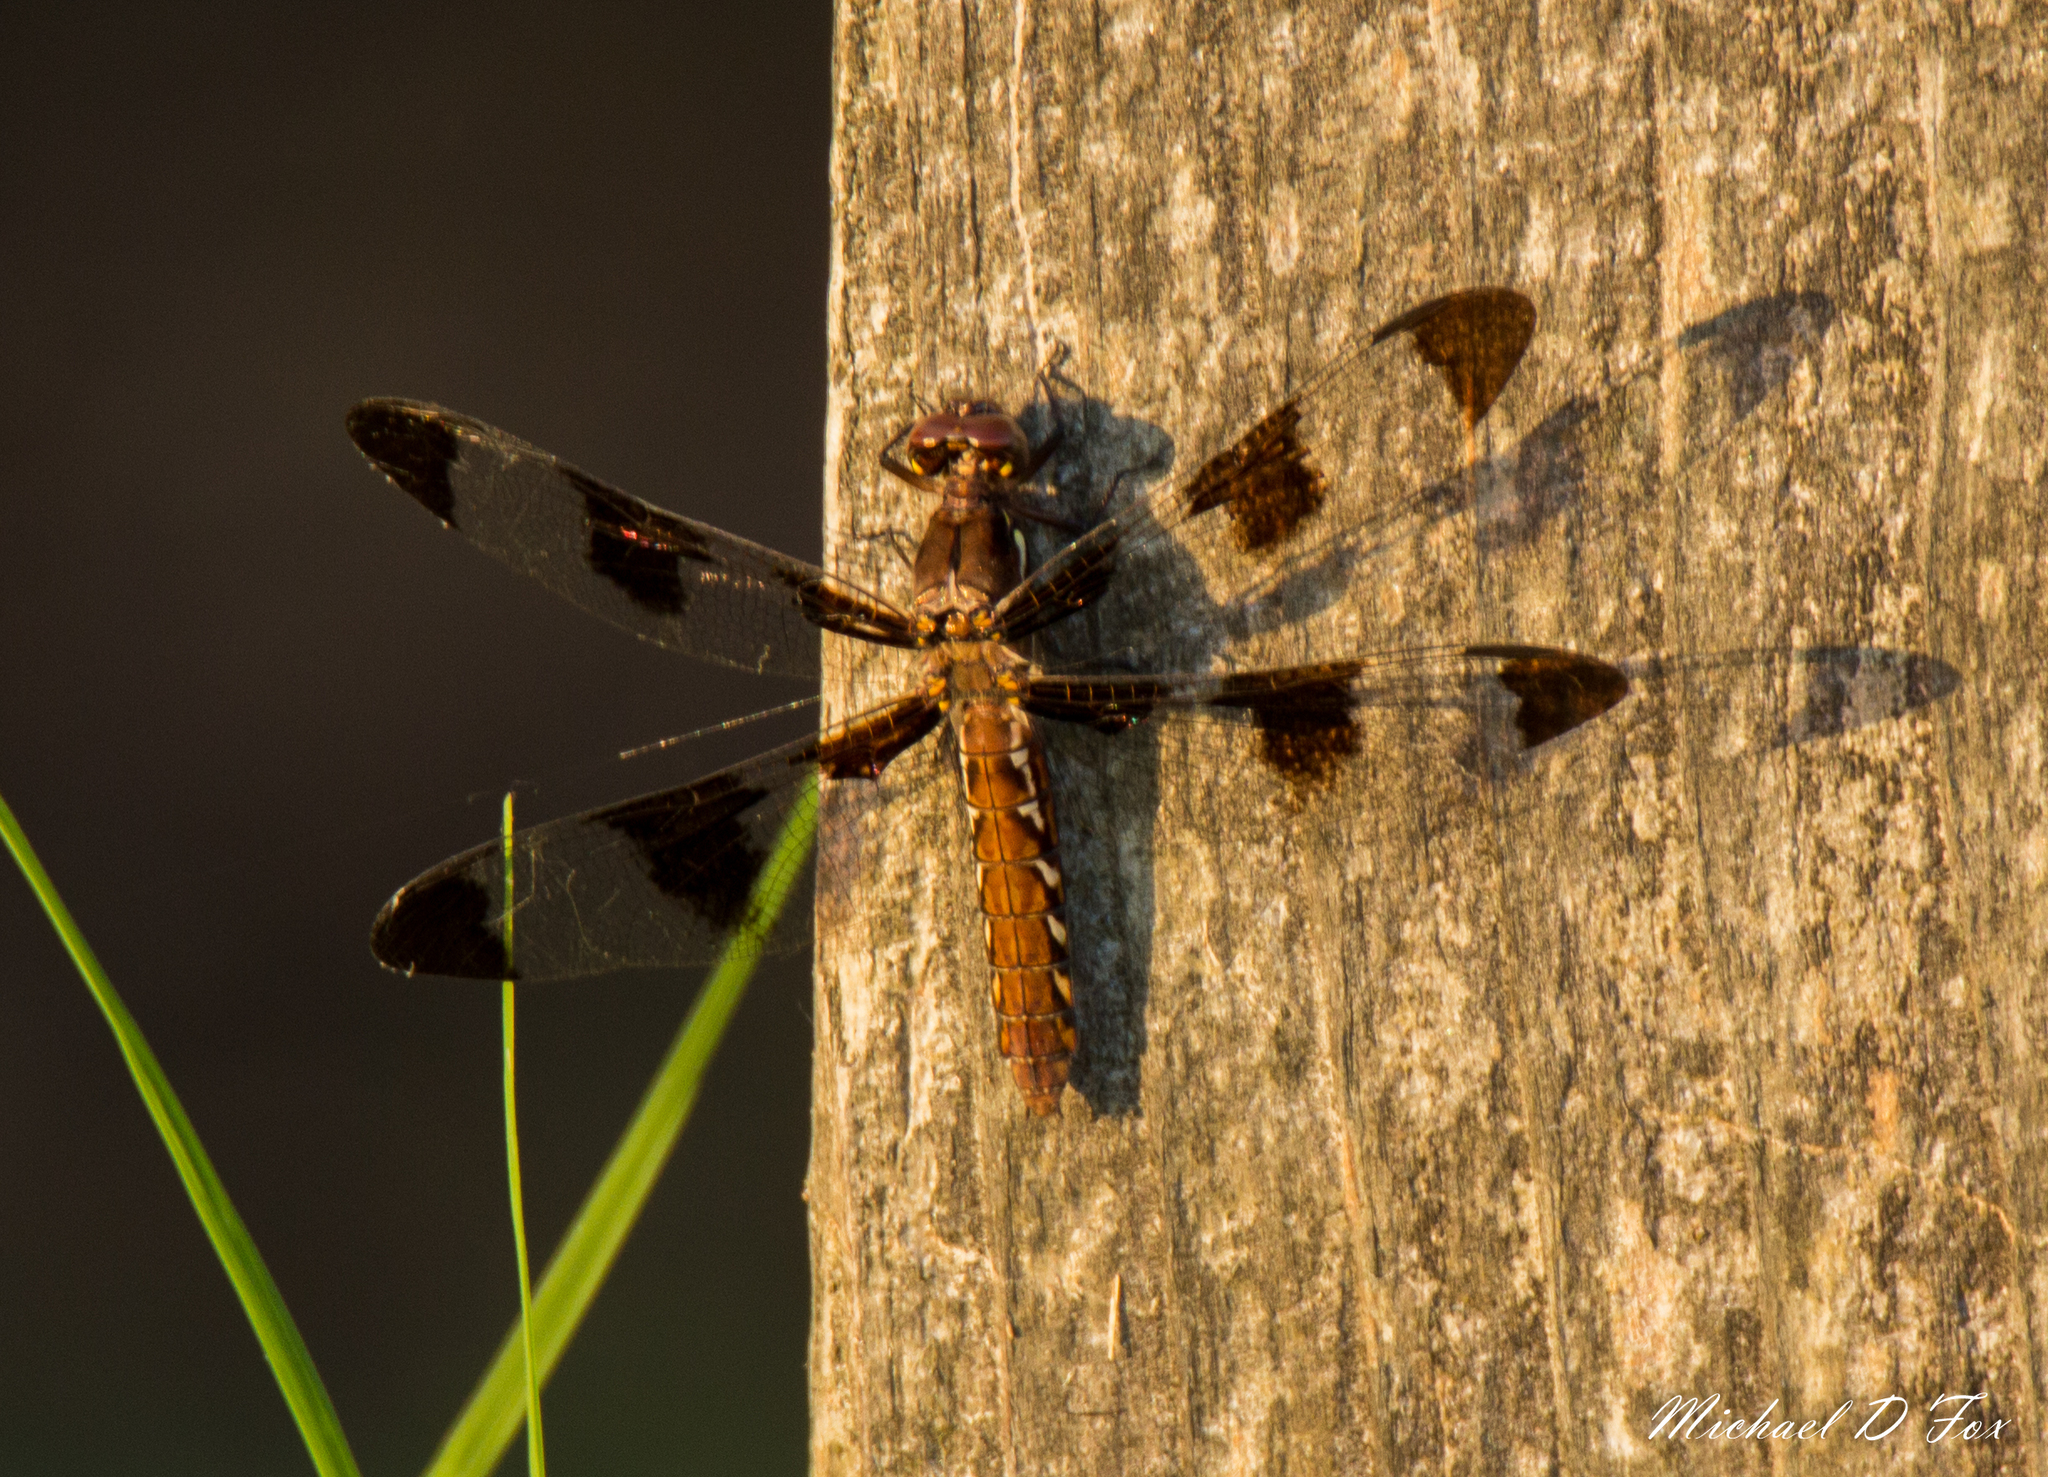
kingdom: Animalia
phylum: Arthropoda
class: Insecta
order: Odonata
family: Libellulidae
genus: Plathemis
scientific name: Plathemis lydia
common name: Common whitetail
